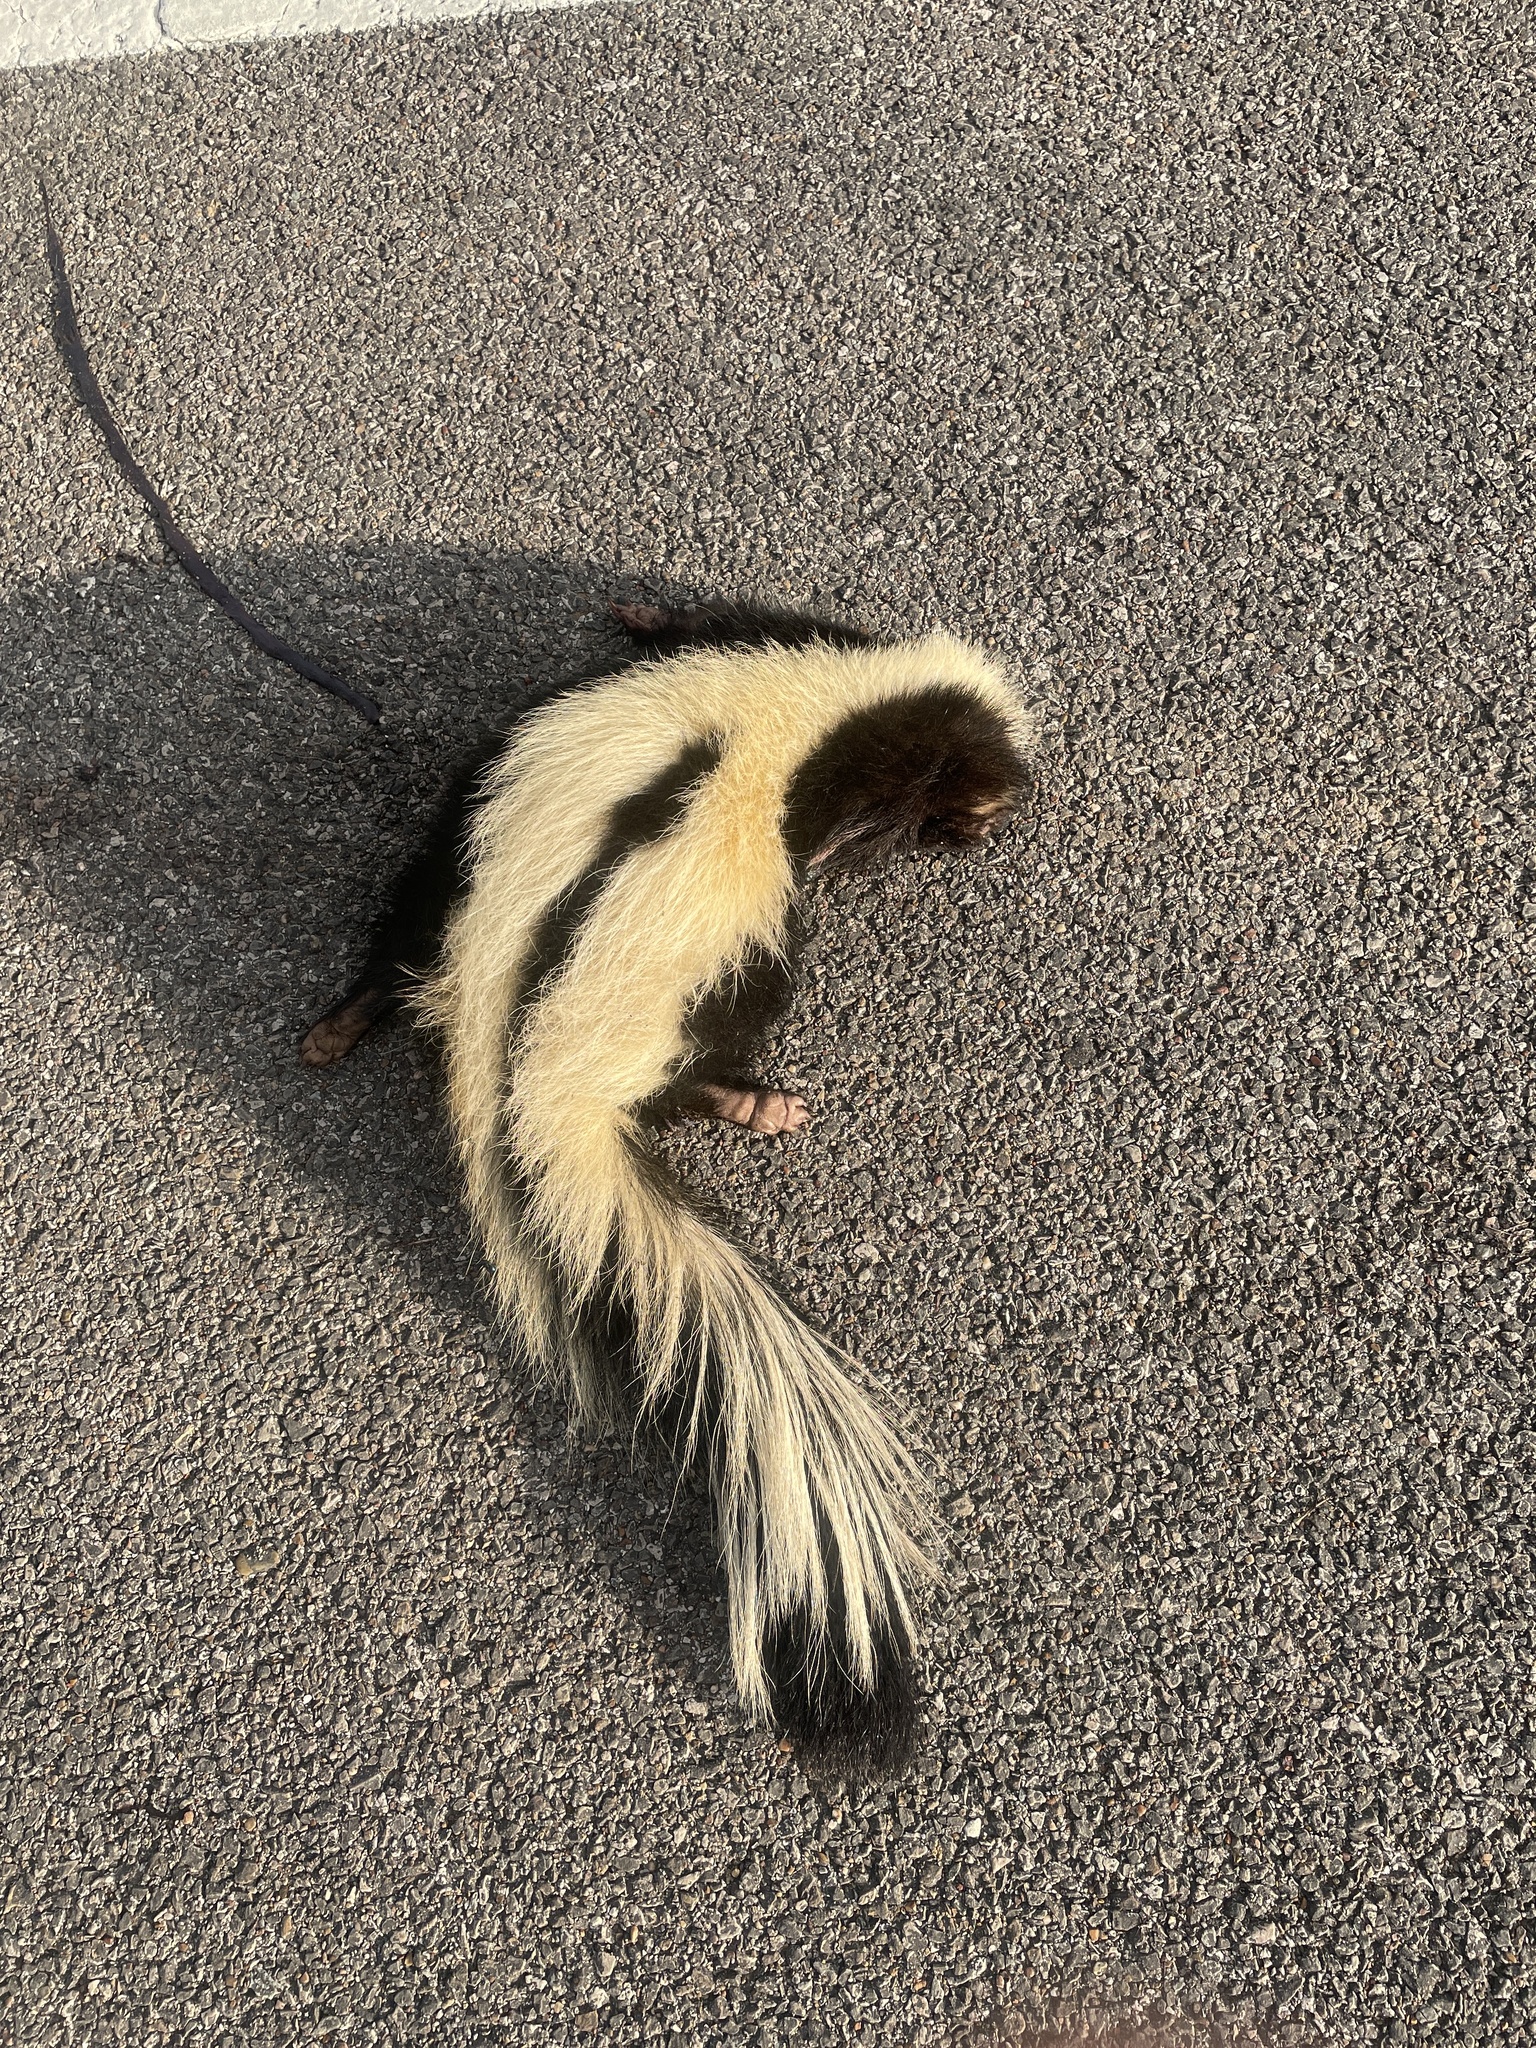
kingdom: Animalia
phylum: Chordata
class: Mammalia
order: Carnivora
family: Mephitidae
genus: Mephitis
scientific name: Mephitis mephitis
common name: Striped skunk
